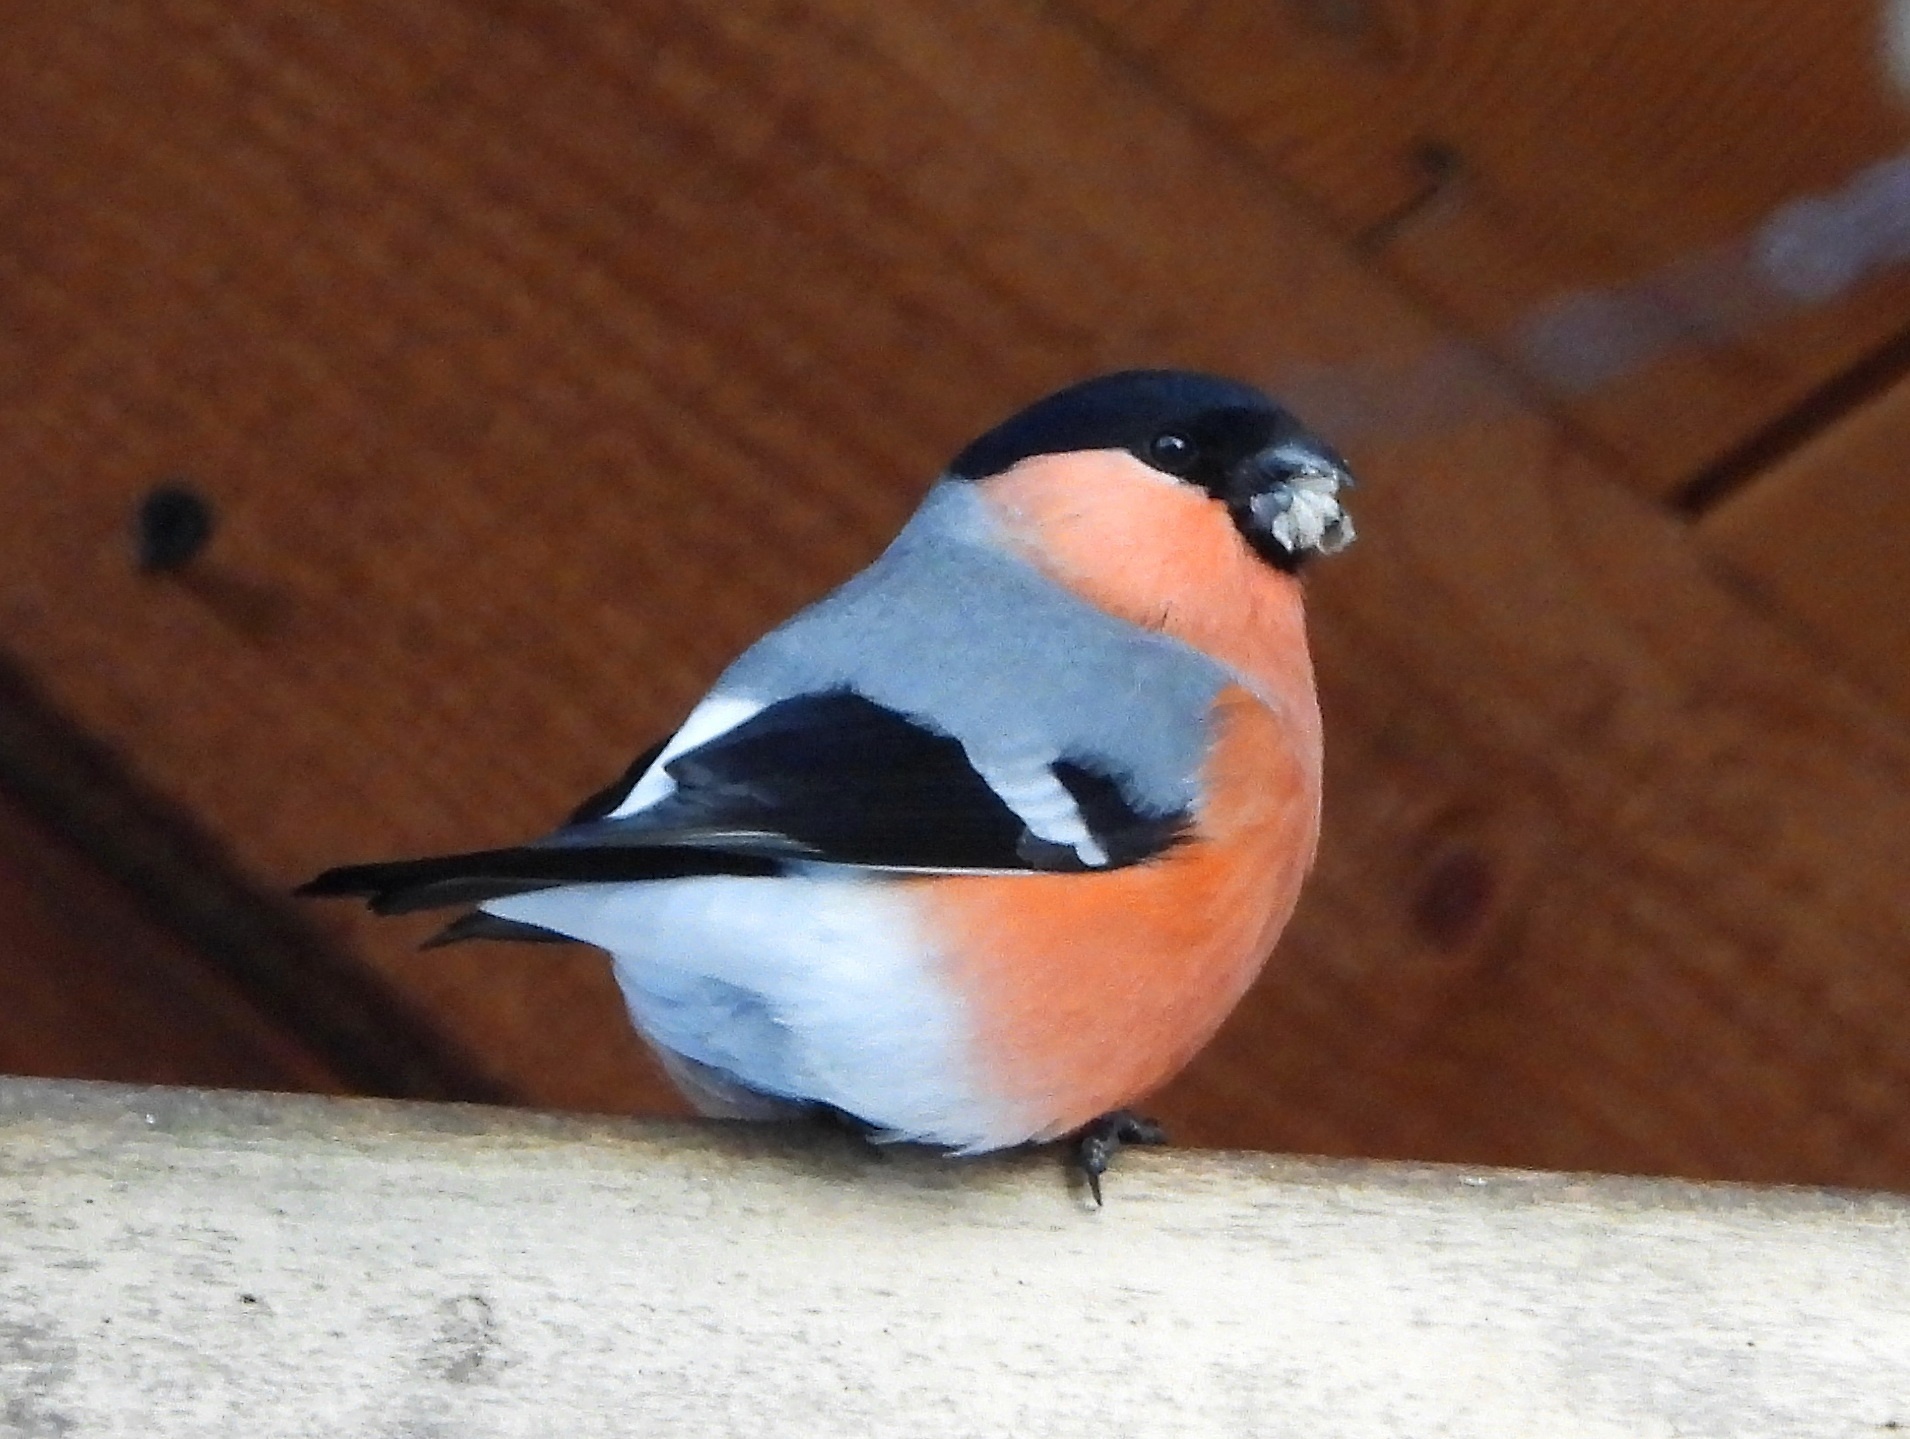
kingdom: Animalia
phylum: Chordata
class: Aves
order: Passeriformes
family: Fringillidae
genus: Pyrrhula
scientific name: Pyrrhula pyrrhula
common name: Eurasian bullfinch
